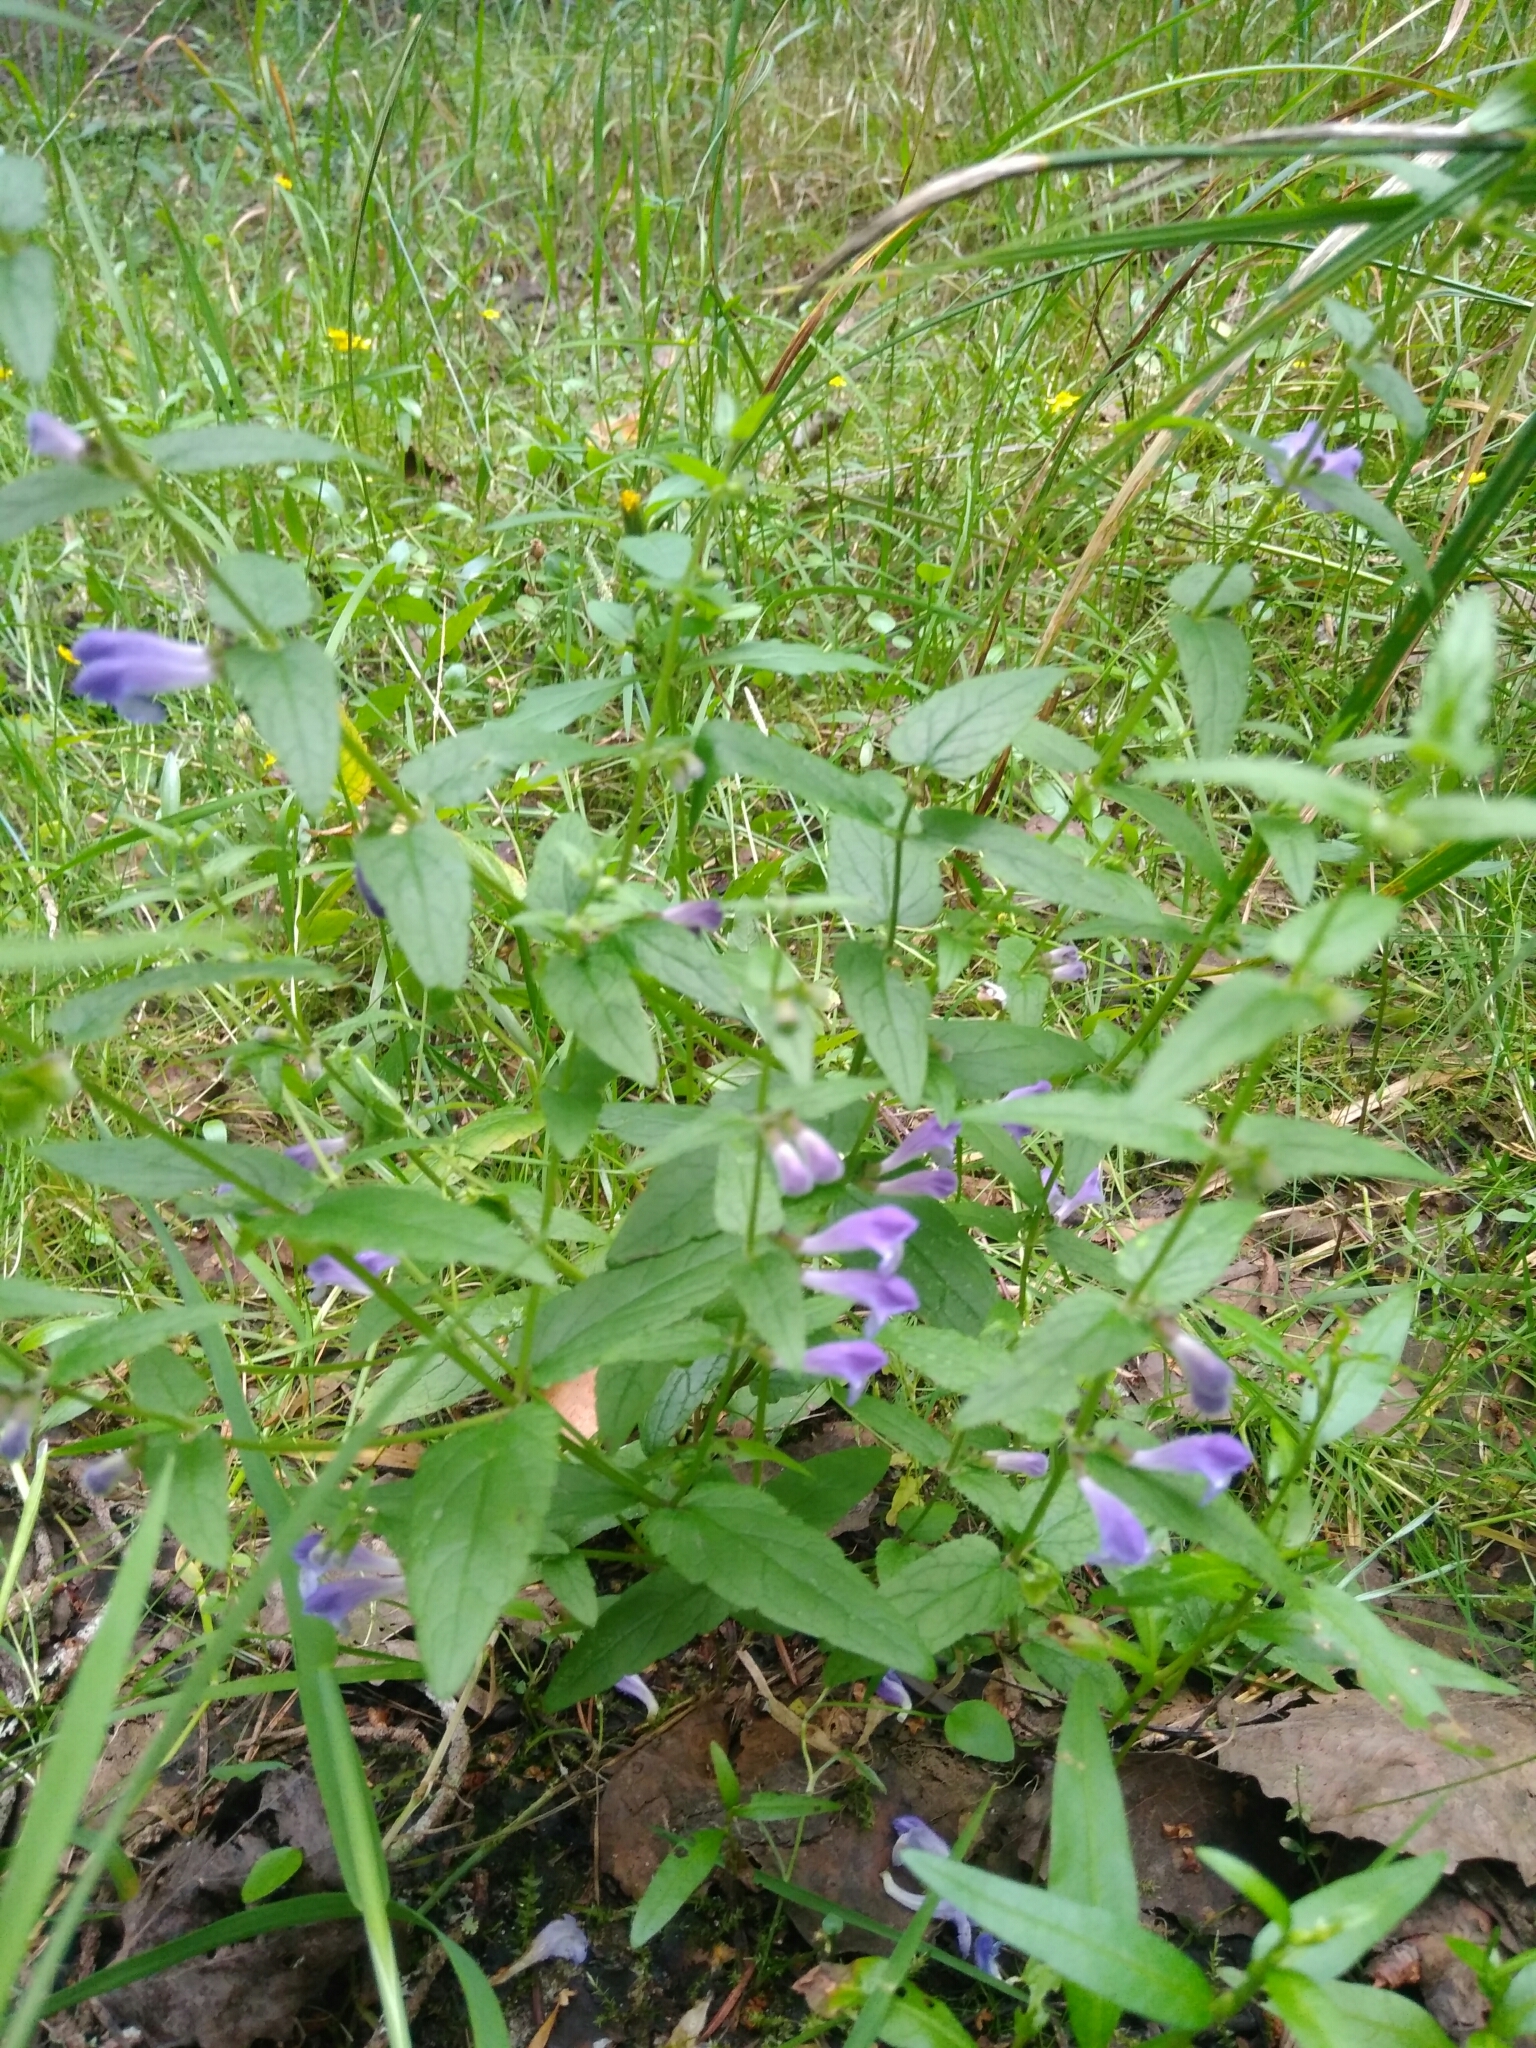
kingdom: Plantae
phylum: Tracheophyta
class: Magnoliopsida
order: Lamiales
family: Lamiaceae
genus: Scutellaria
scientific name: Scutellaria galericulata
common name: Skullcap
